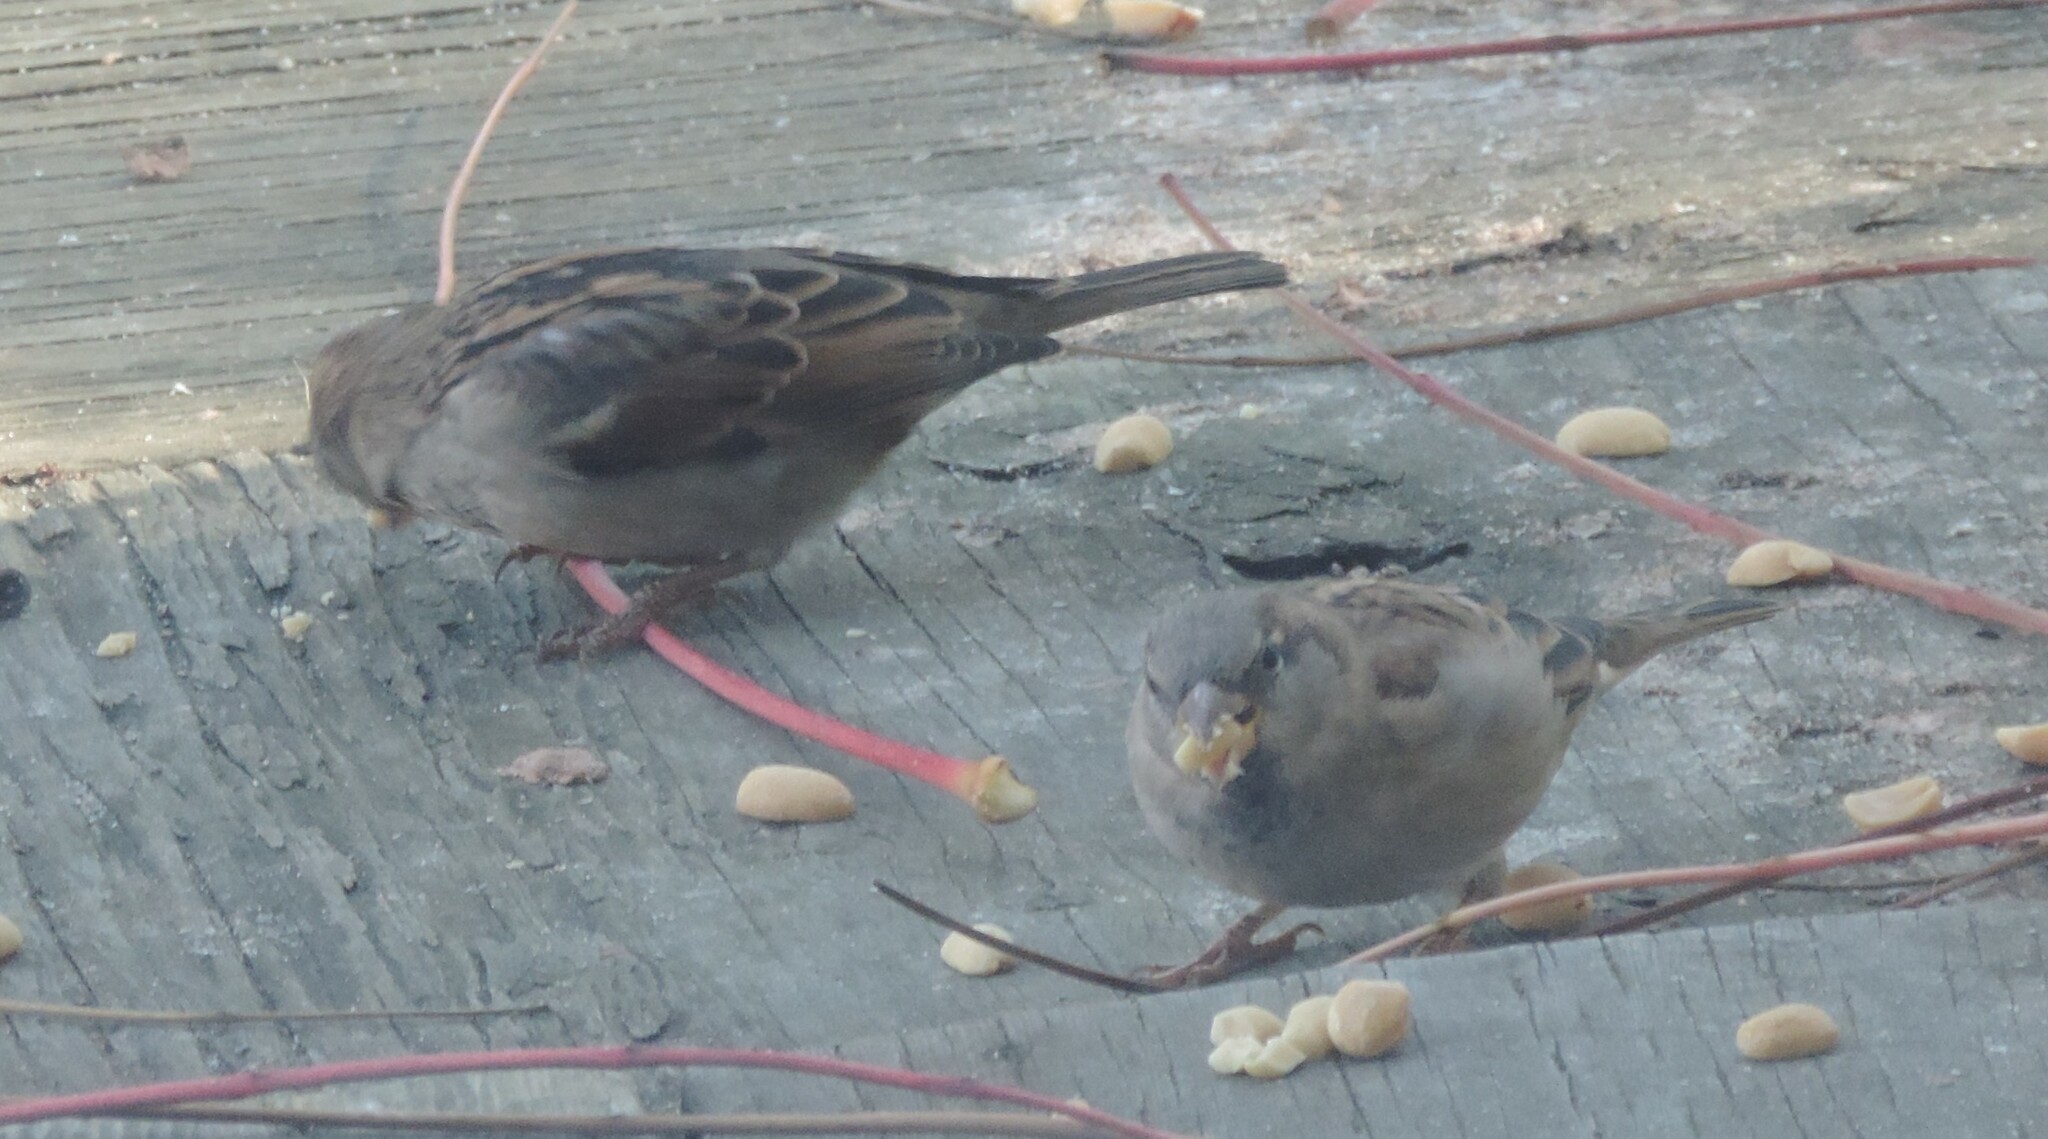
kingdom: Animalia
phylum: Chordata
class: Aves
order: Passeriformes
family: Passeridae
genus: Passer
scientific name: Passer domesticus
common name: House sparrow
